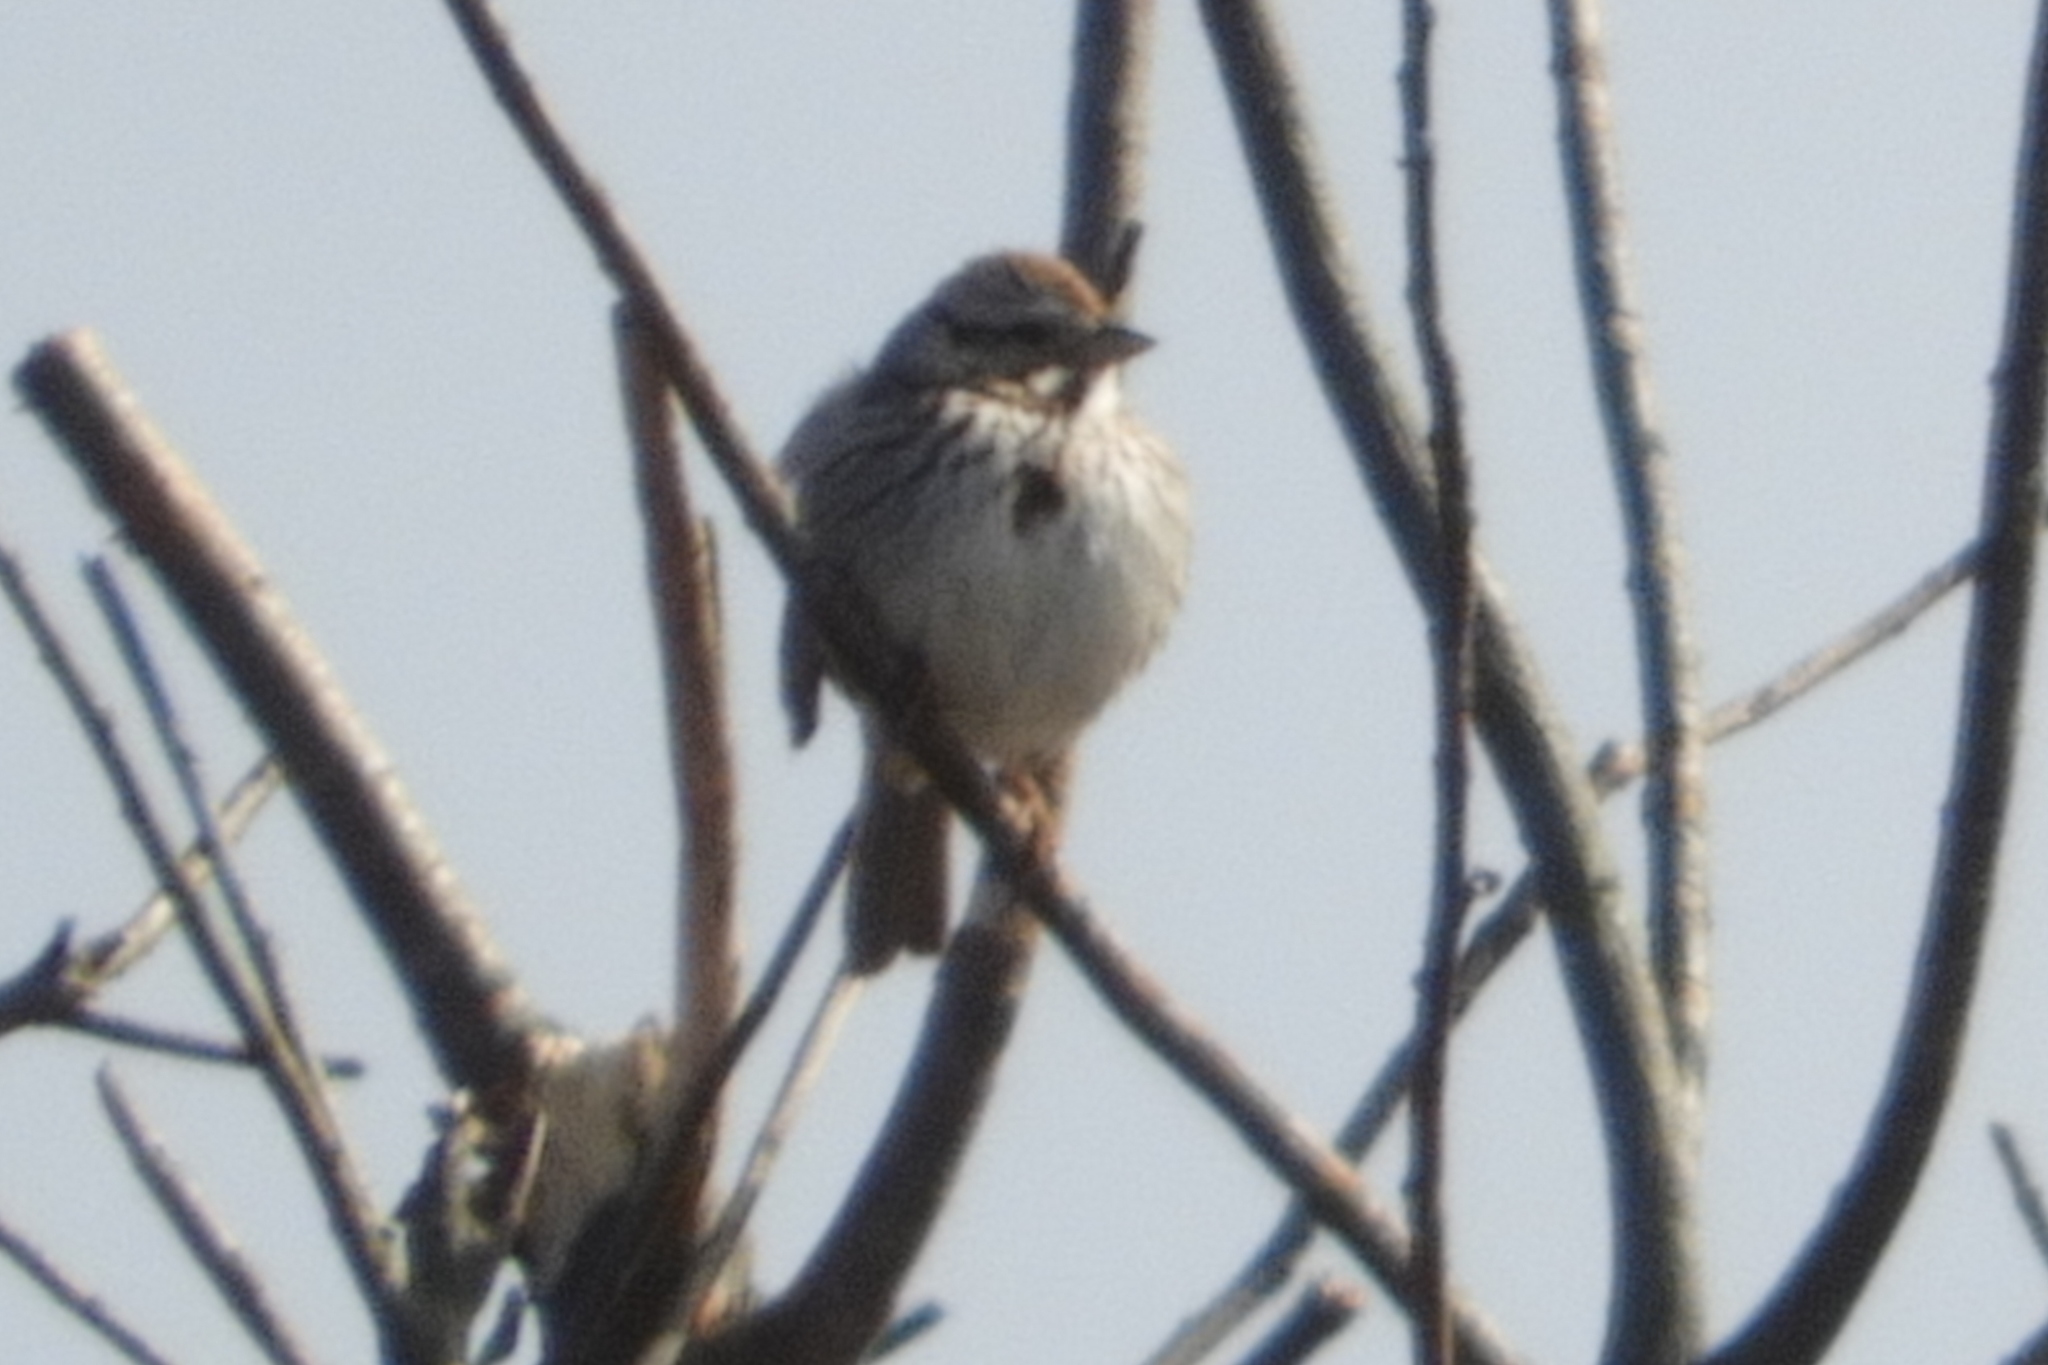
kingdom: Animalia
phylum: Chordata
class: Aves
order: Passeriformes
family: Passerellidae
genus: Melospiza
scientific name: Melospiza melodia
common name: Song sparrow
